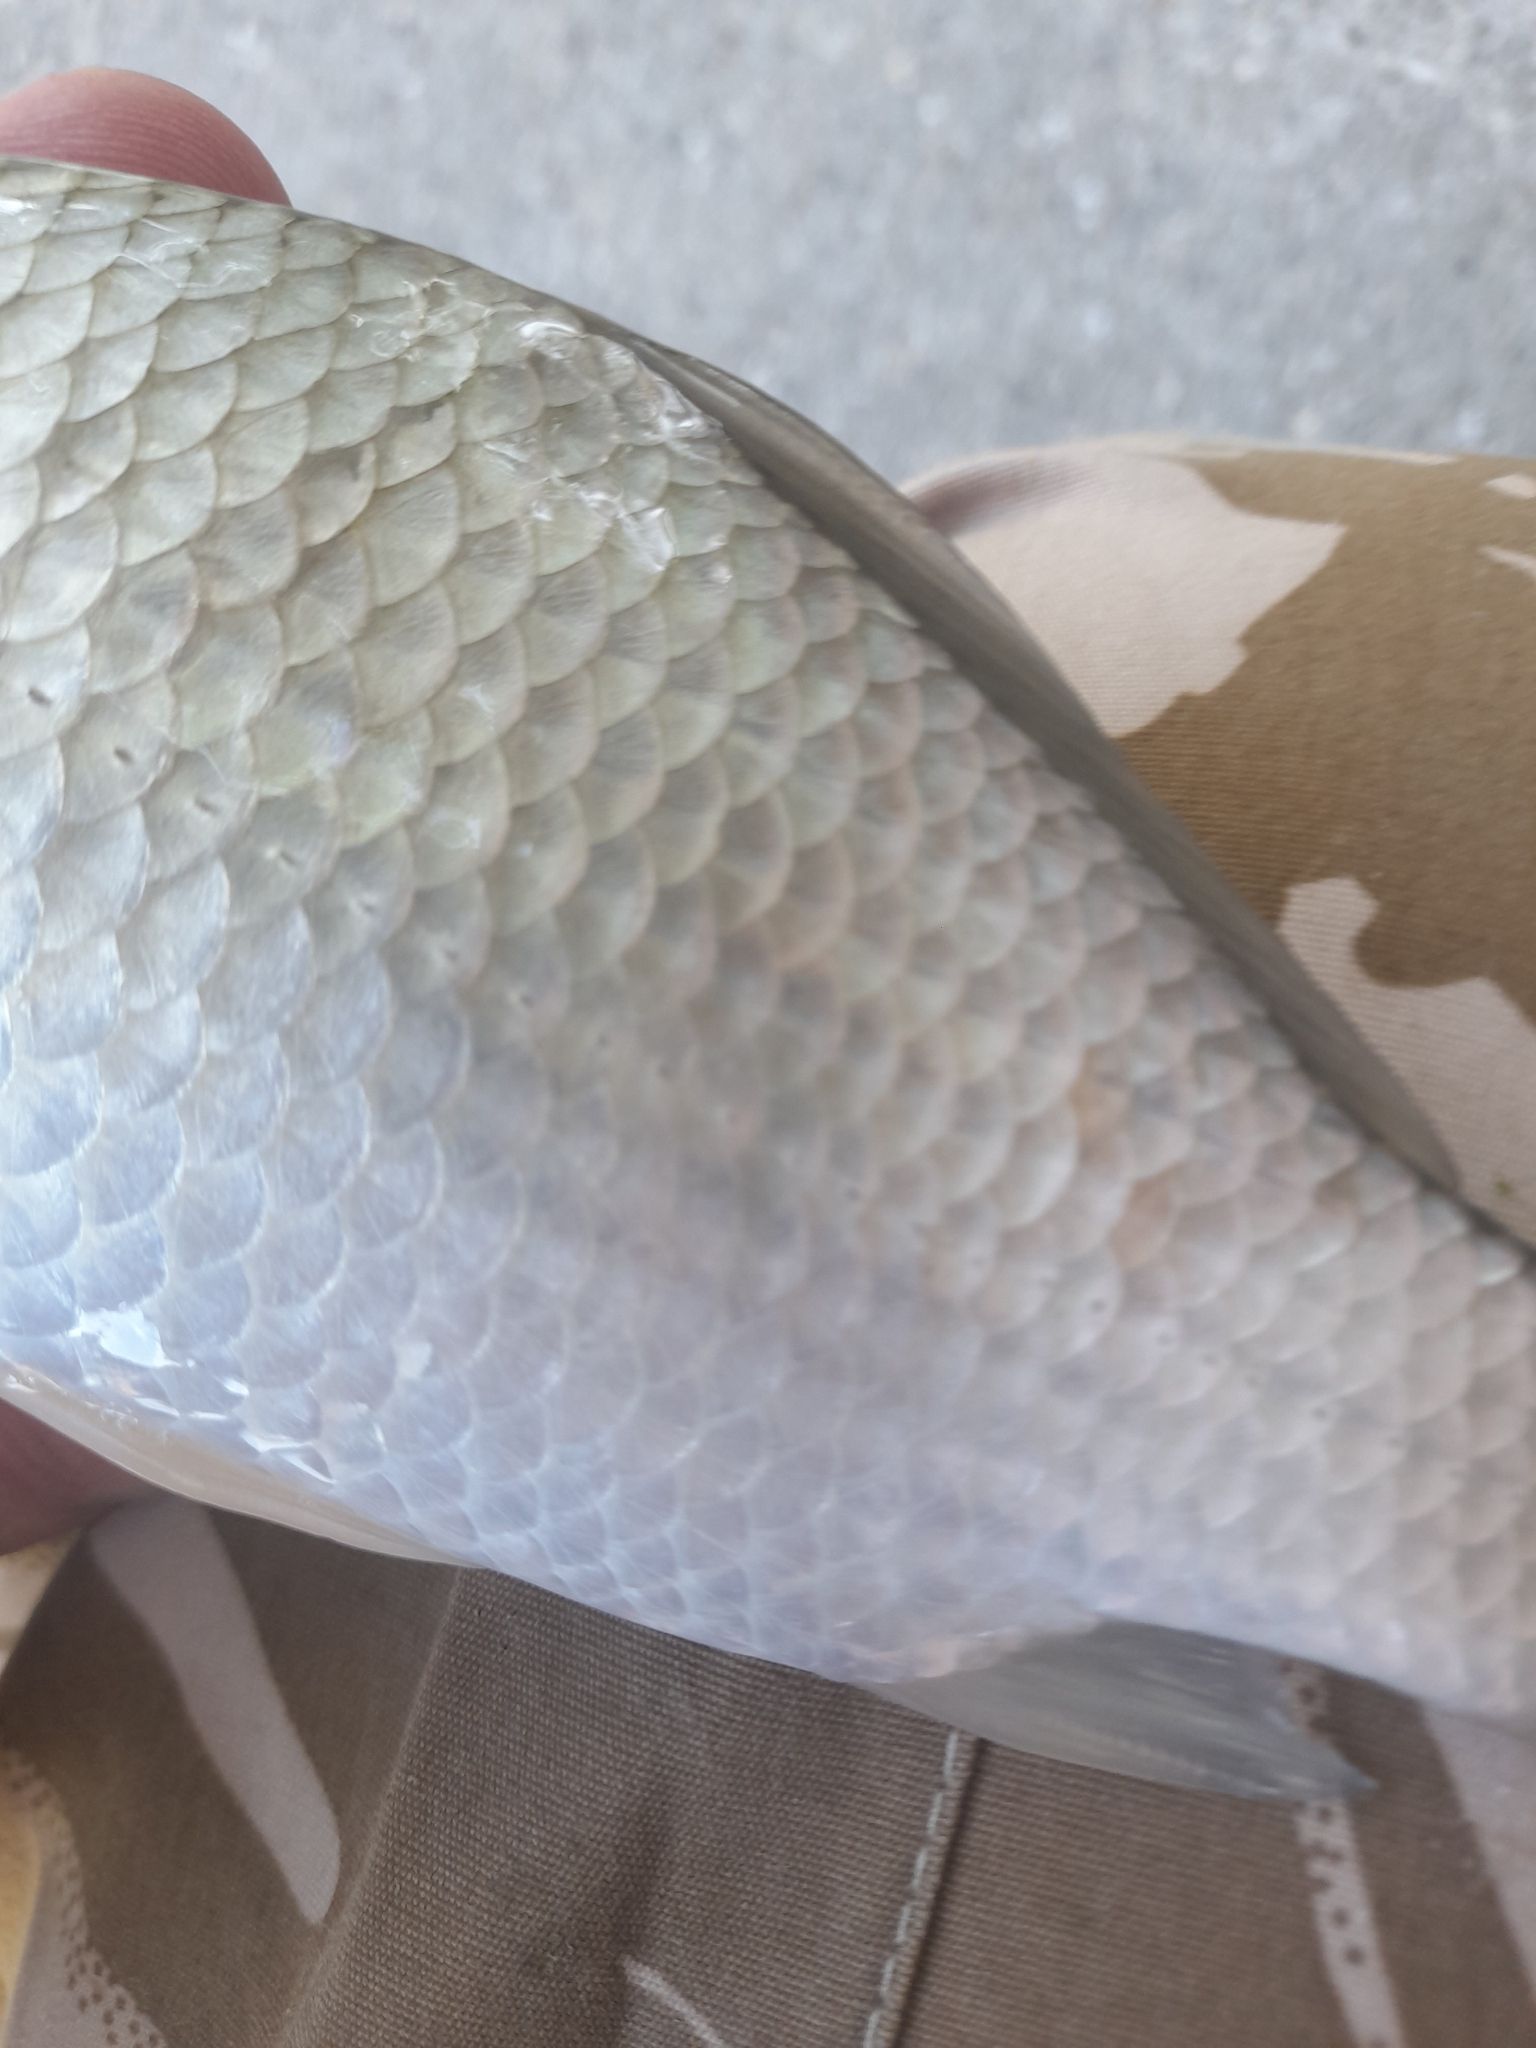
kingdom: Animalia
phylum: Chordata
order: Cypriniformes
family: Cyprinidae
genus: Carassius
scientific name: Carassius gibelio
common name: Prussian carp
